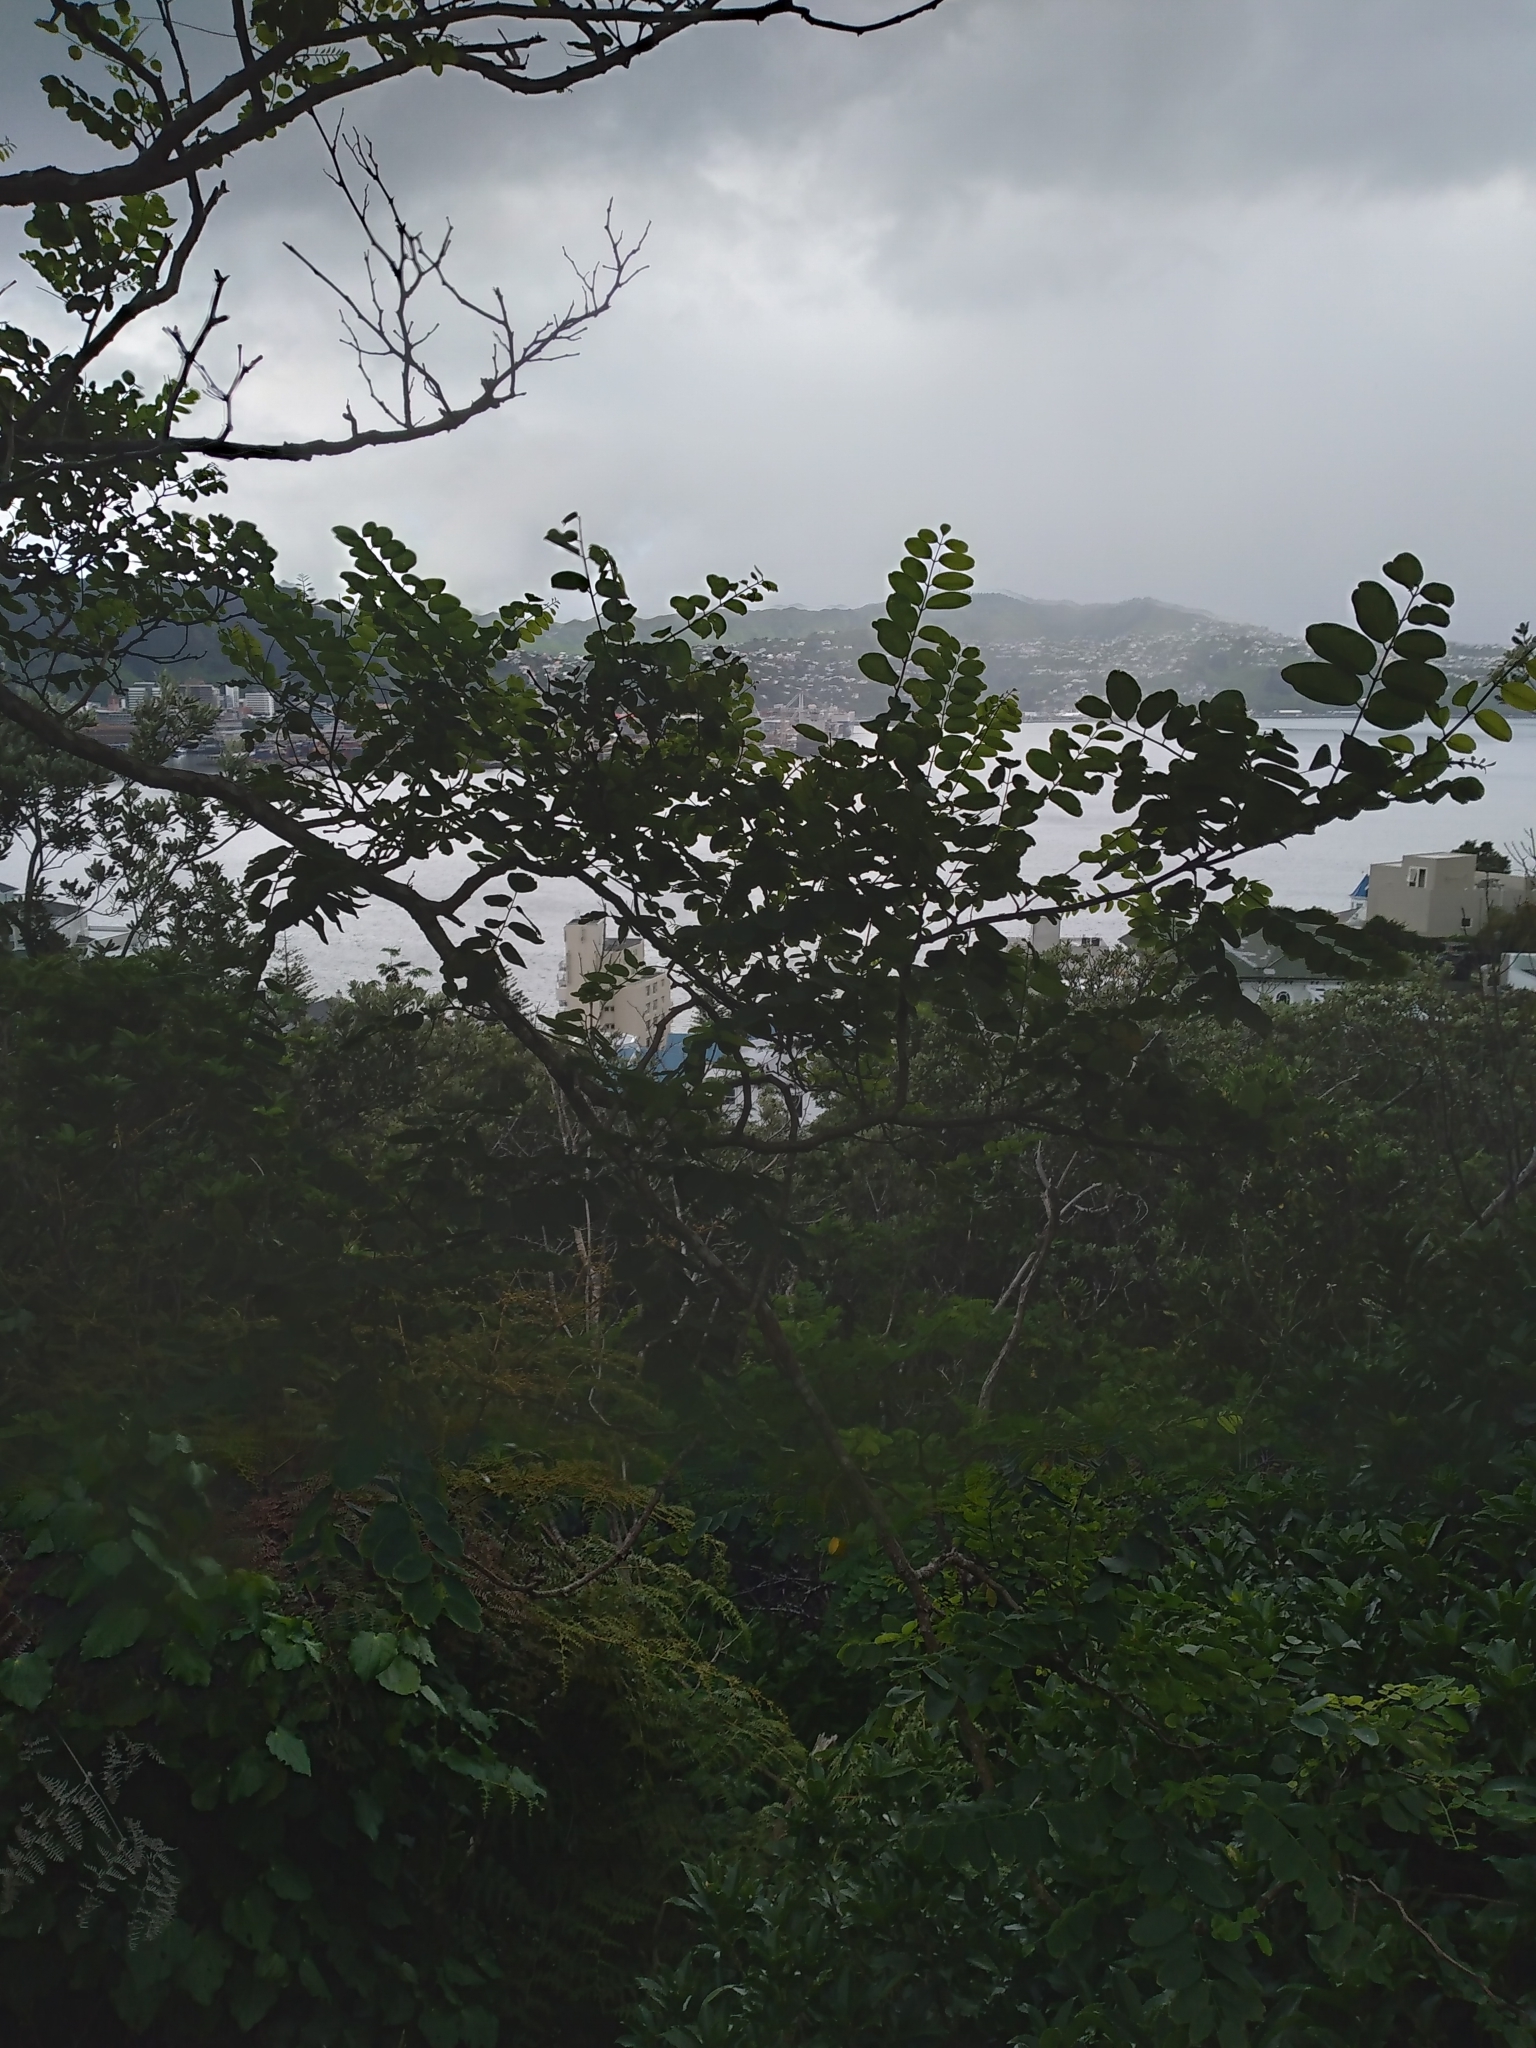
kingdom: Plantae
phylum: Tracheophyta
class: Magnoliopsida
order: Fabales
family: Fabaceae
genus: Robinia
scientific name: Robinia pseudoacacia
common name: Black locust
